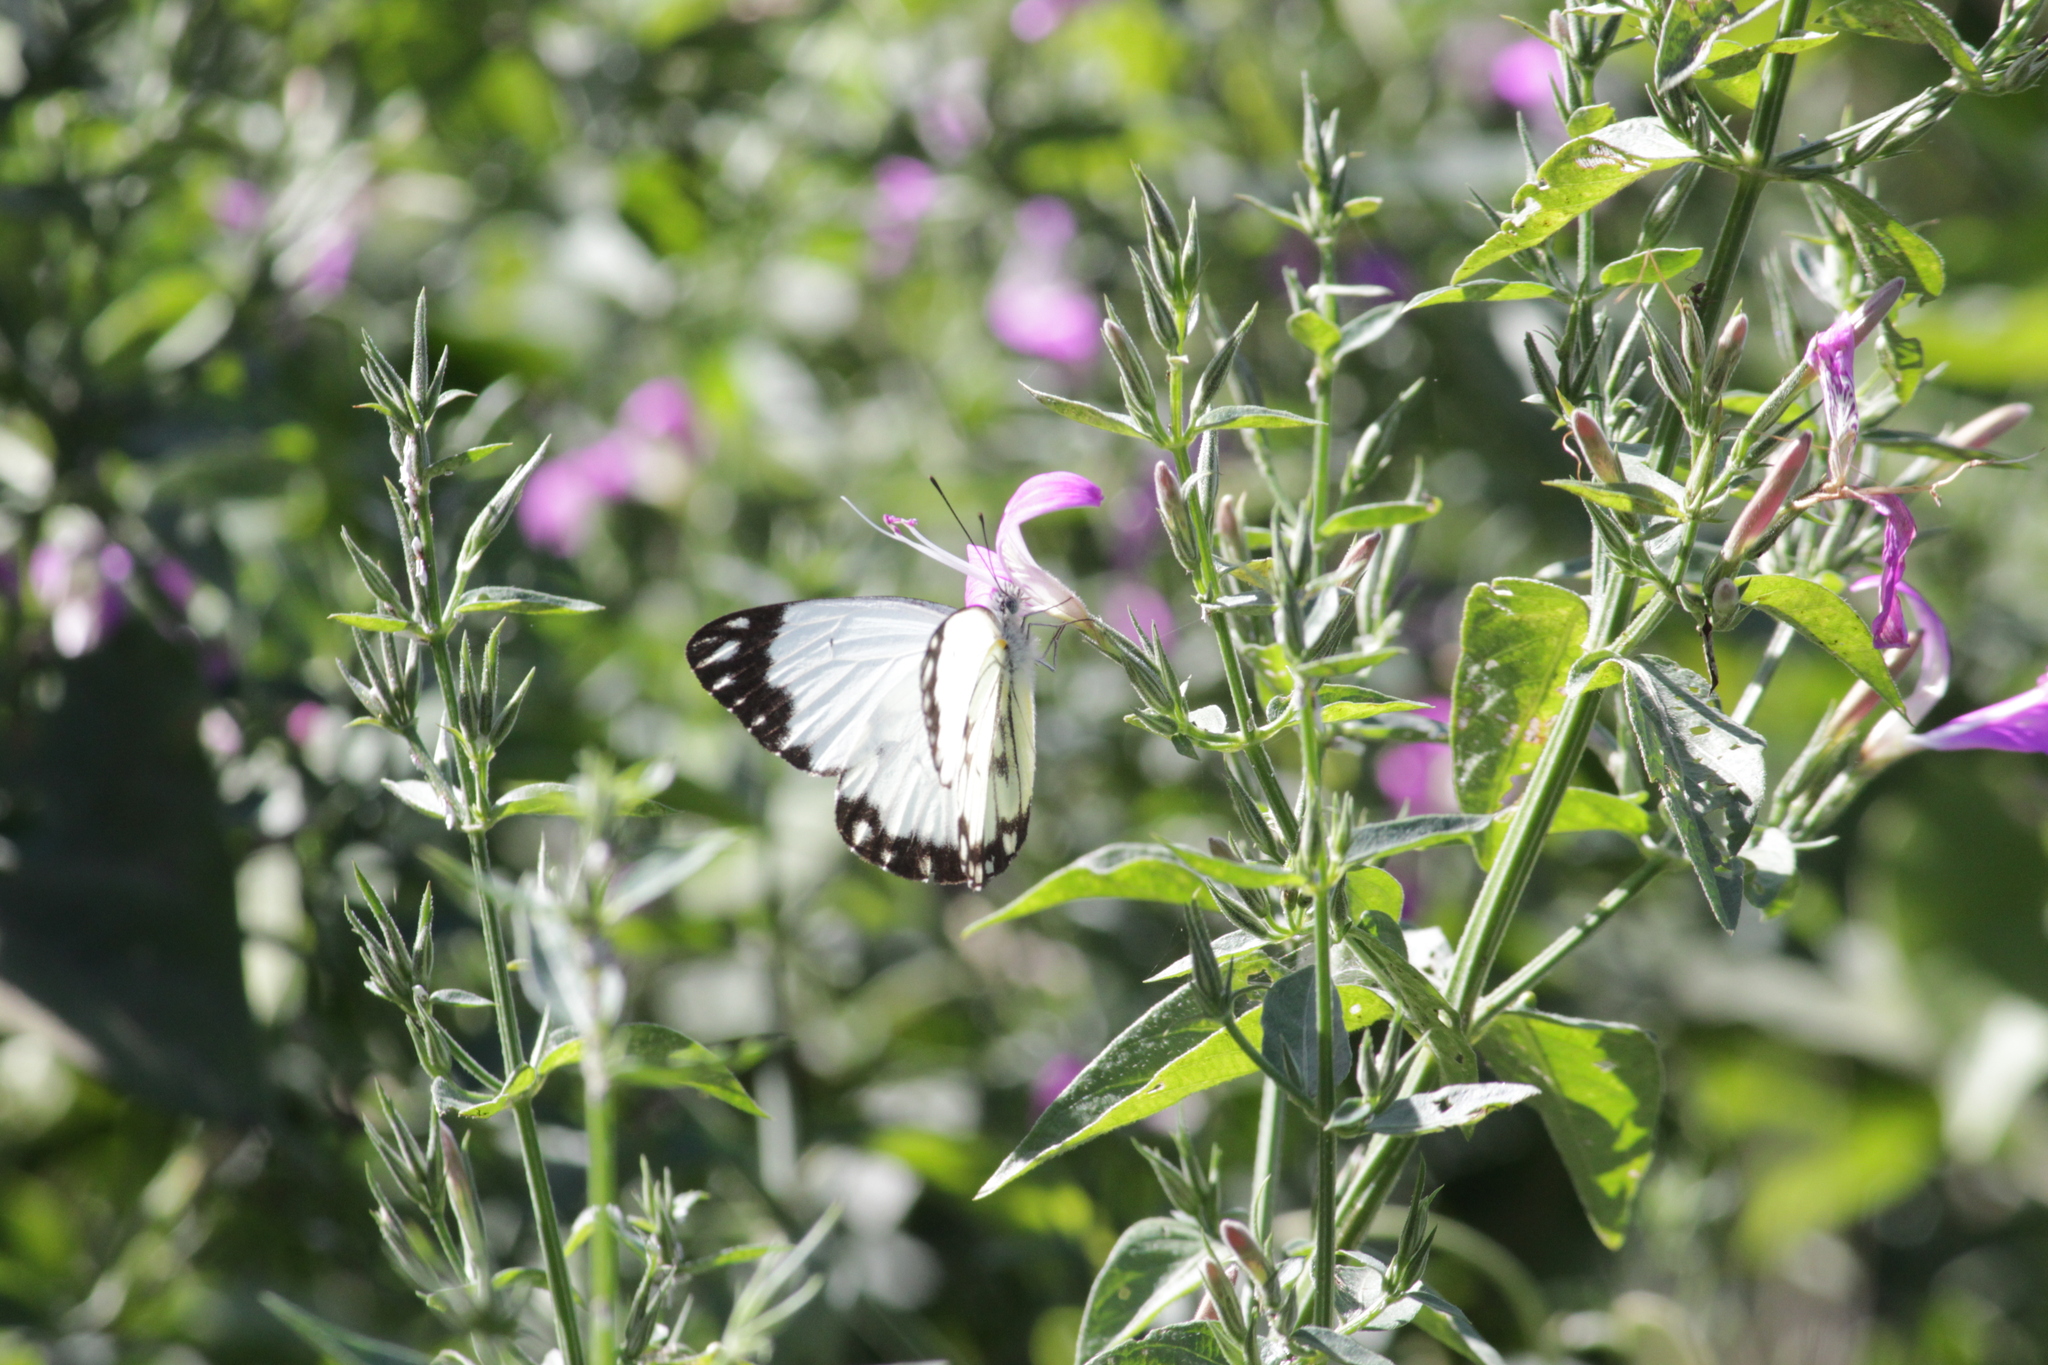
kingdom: Animalia
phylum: Arthropoda
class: Insecta
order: Lepidoptera
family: Pieridae
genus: Belenois
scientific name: Belenois creona
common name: African caper white
